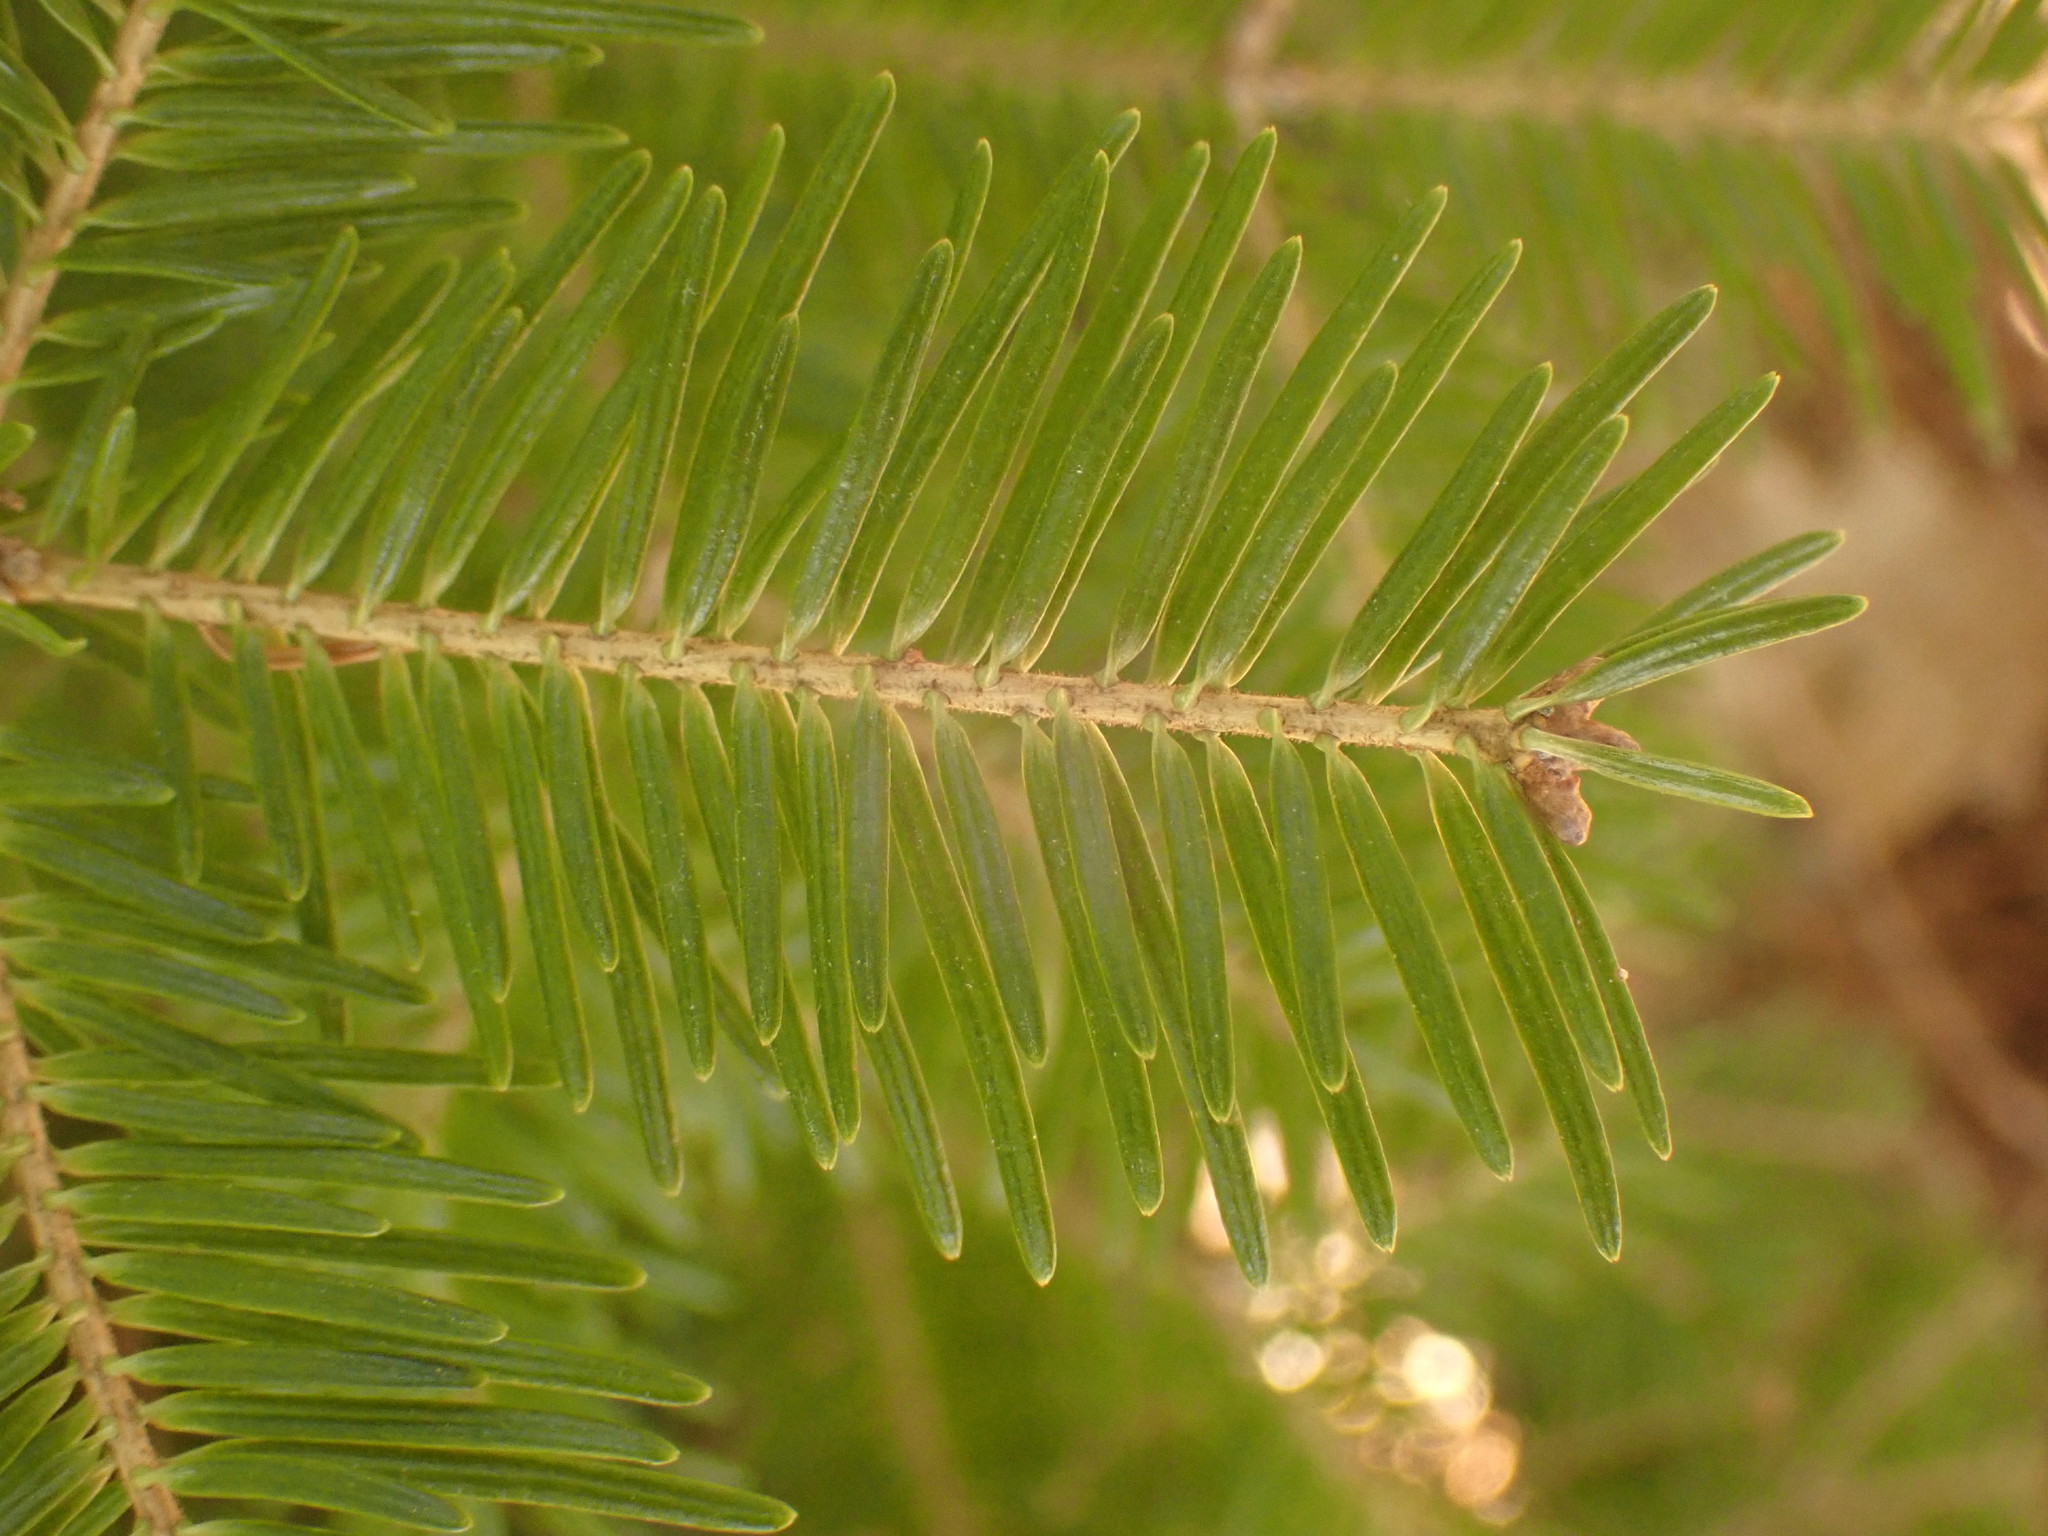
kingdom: Plantae
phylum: Tracheophyta
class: Pinopsida
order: Pinales
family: Pinaceae
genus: Abies
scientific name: Abies balsamea
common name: Balsam fir
